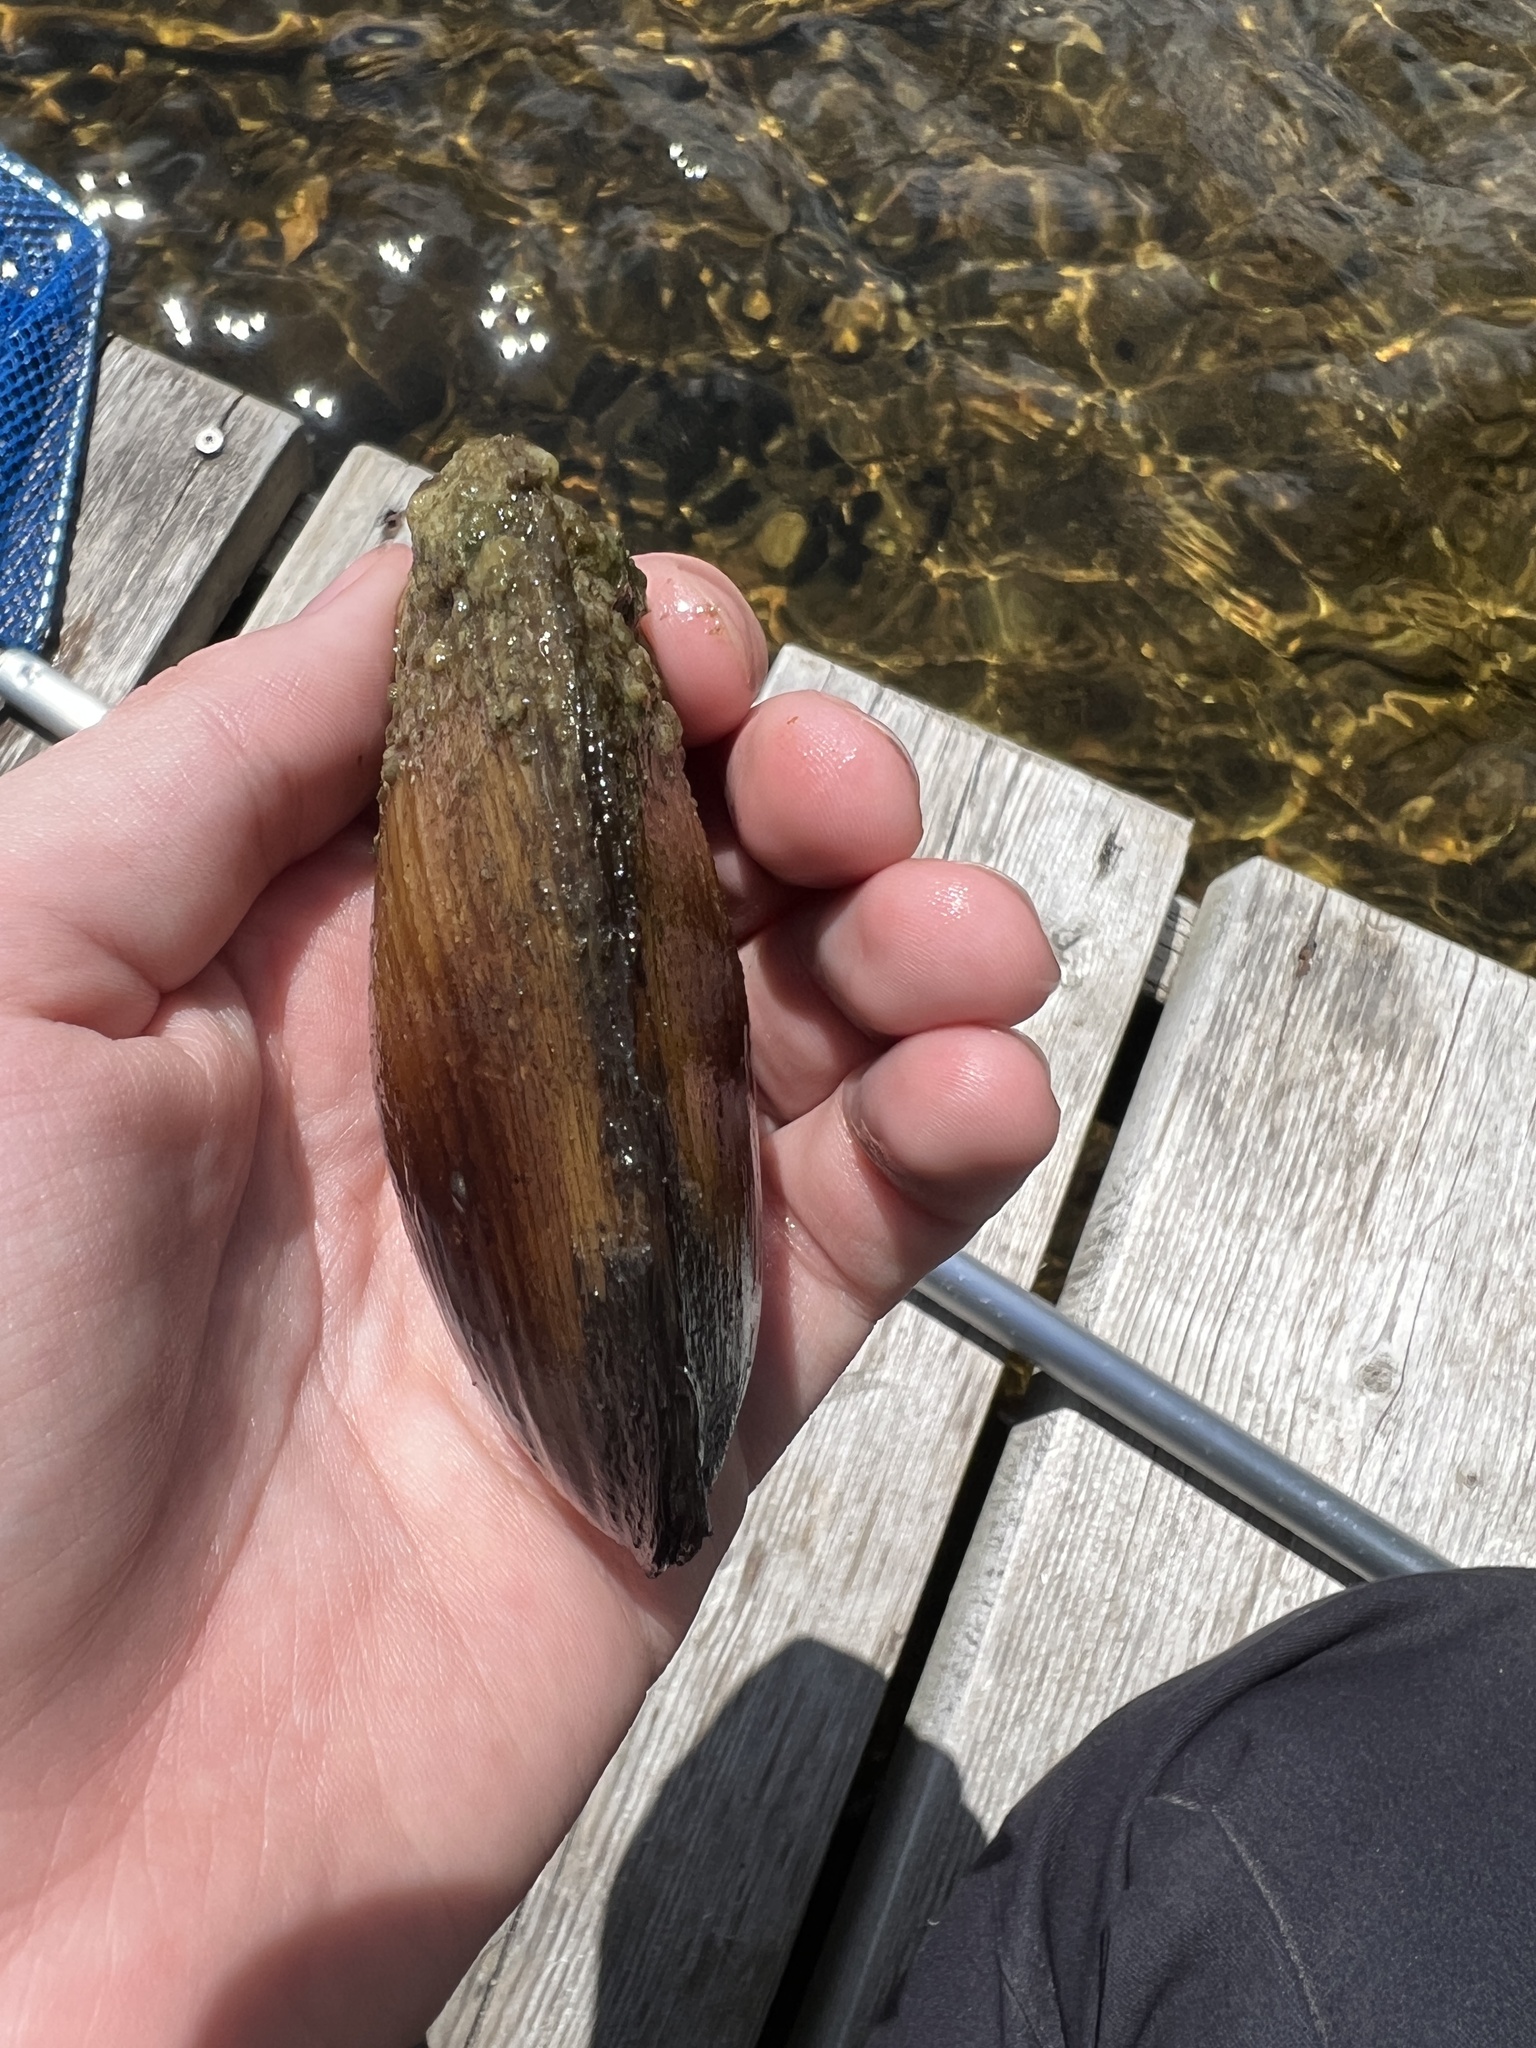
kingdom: Animalia
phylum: Mollusca
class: Bivalvia
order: Unionida
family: Unionidae
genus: Lampsilis
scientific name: Lampsilis siliquoidea
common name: Fatmucket
